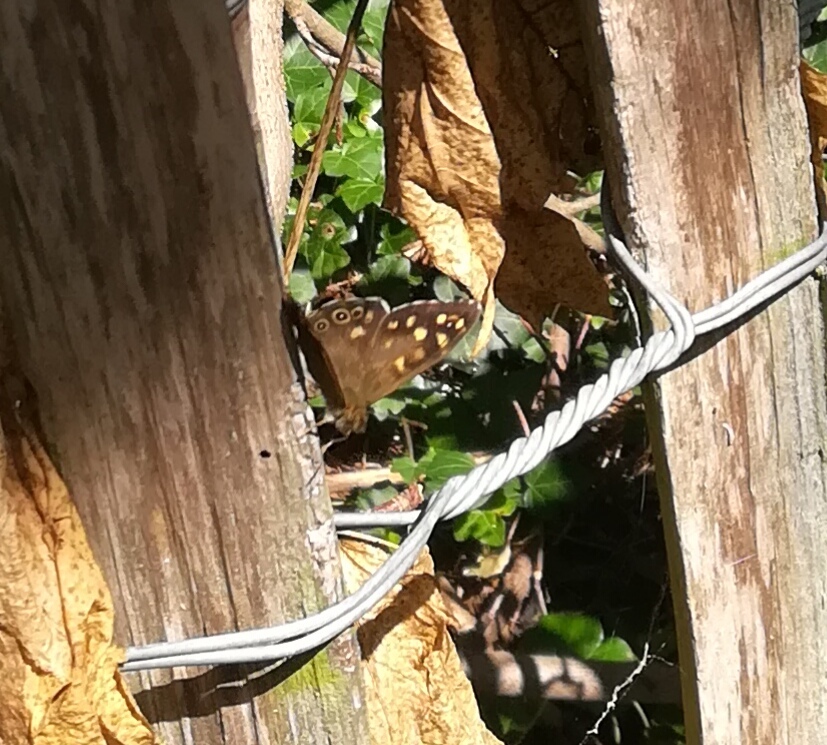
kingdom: Animalia
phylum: Arthropoda
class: Insecta
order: Lepidoptera
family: Nymphalidae
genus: Pararge
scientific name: Pararge aegeria
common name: Speckled wood
